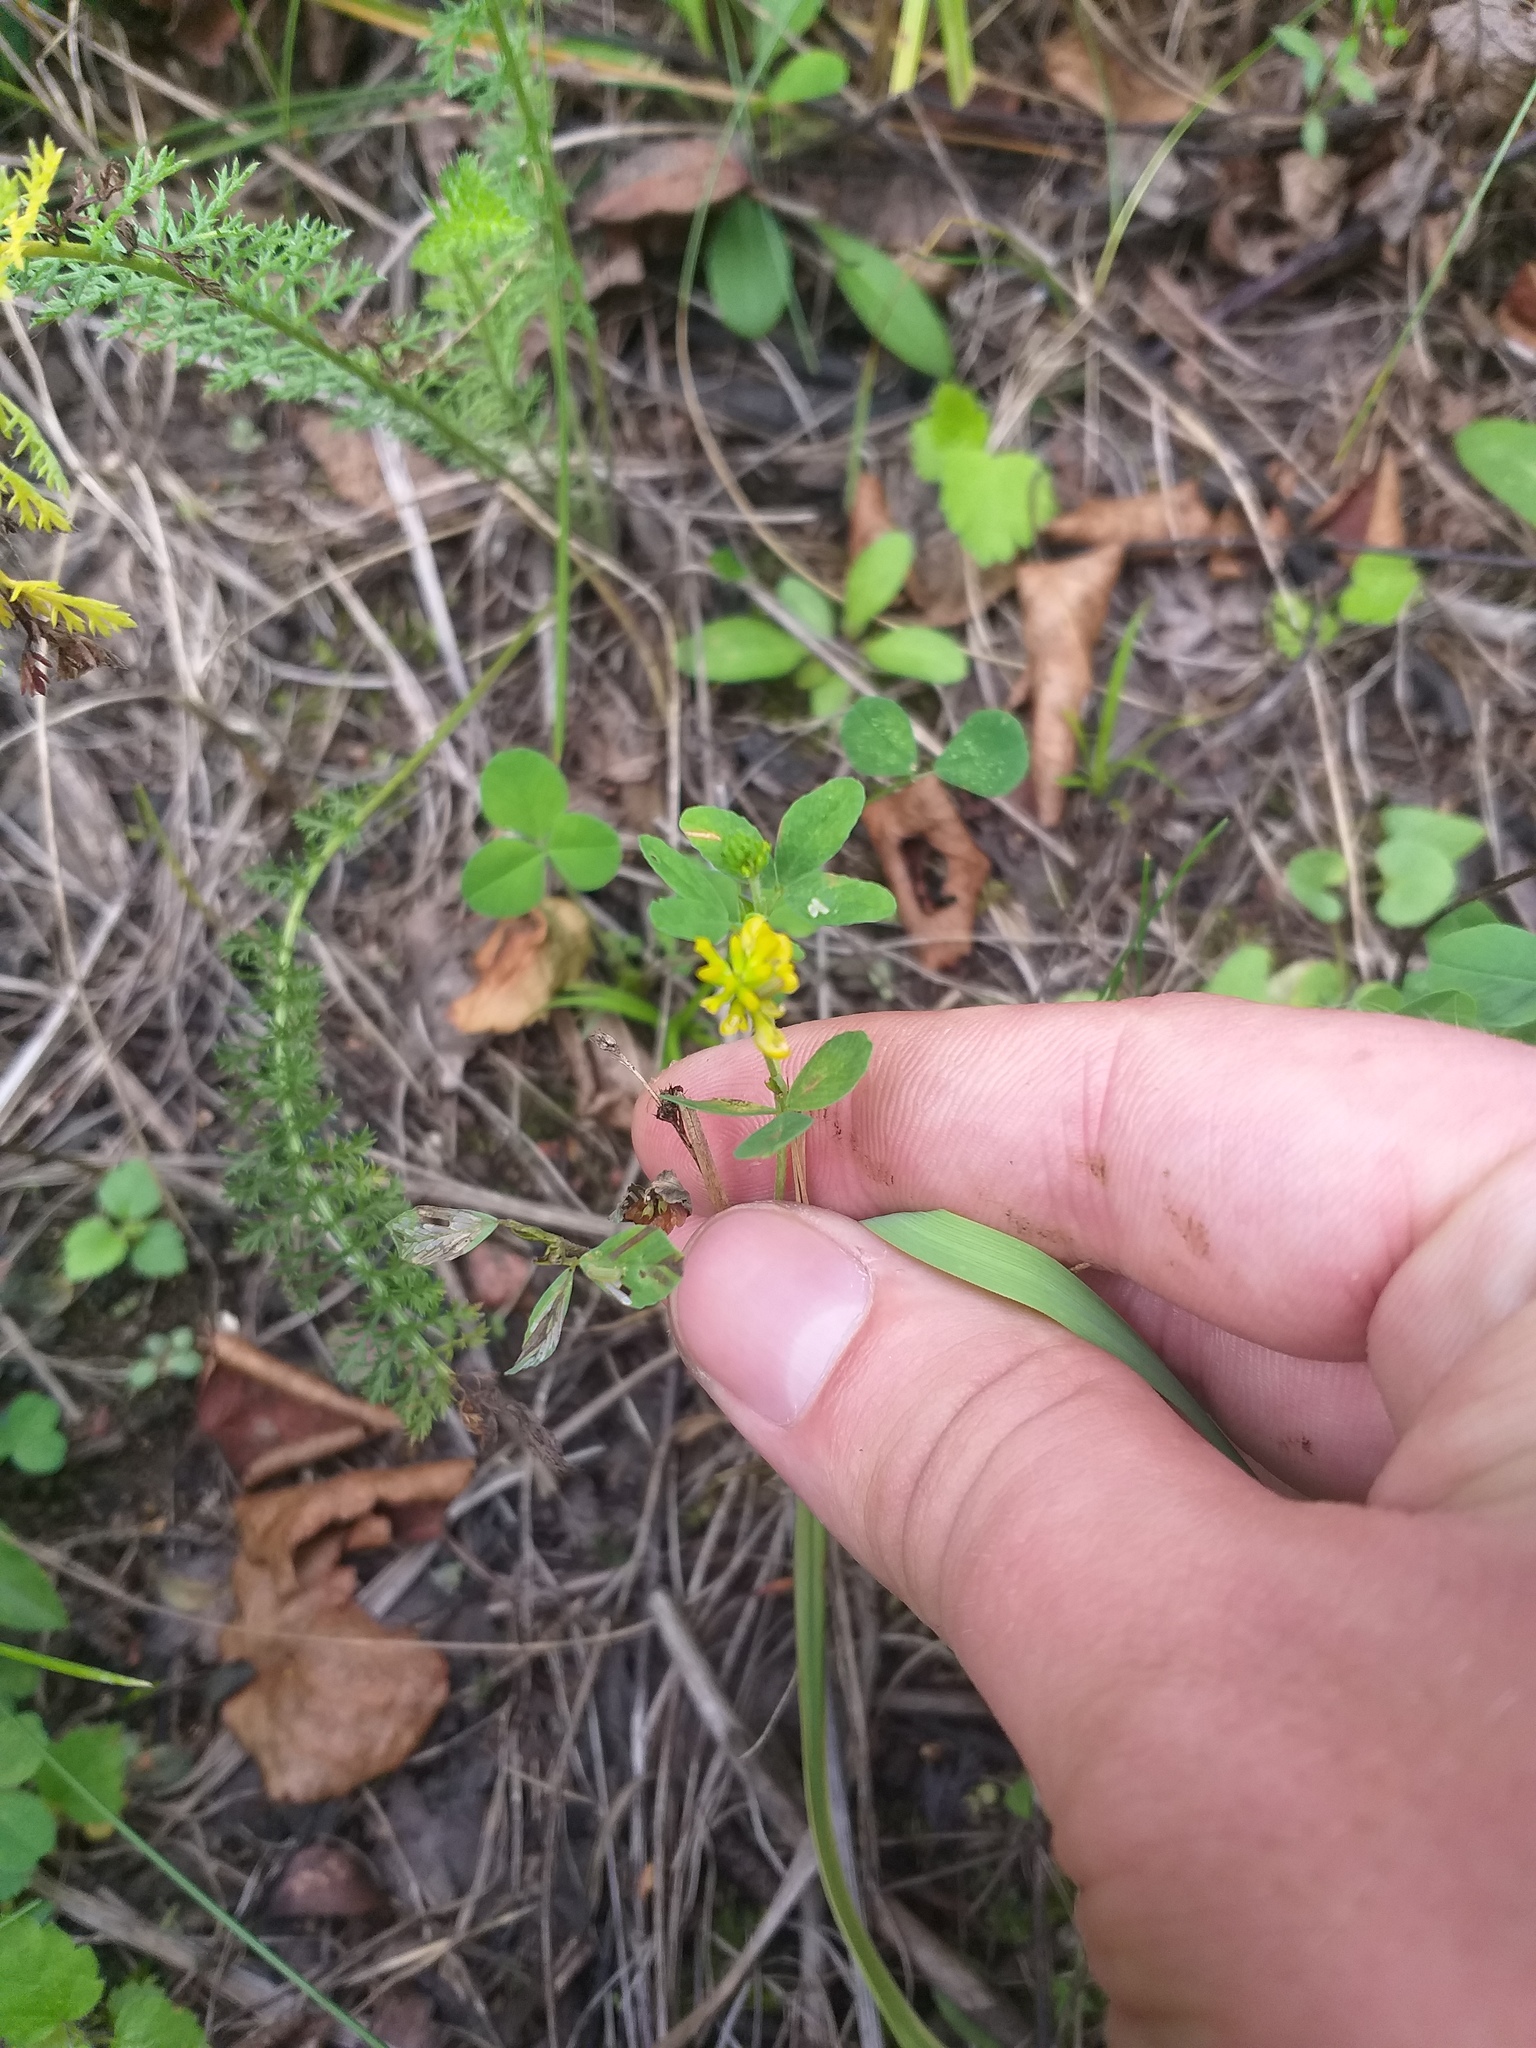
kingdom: Plantae
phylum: Tracheophyta
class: Magnoliopsida
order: Fabales
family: Fabaceae
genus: Trifolium
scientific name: Trifolium aureum
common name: Golden clover
